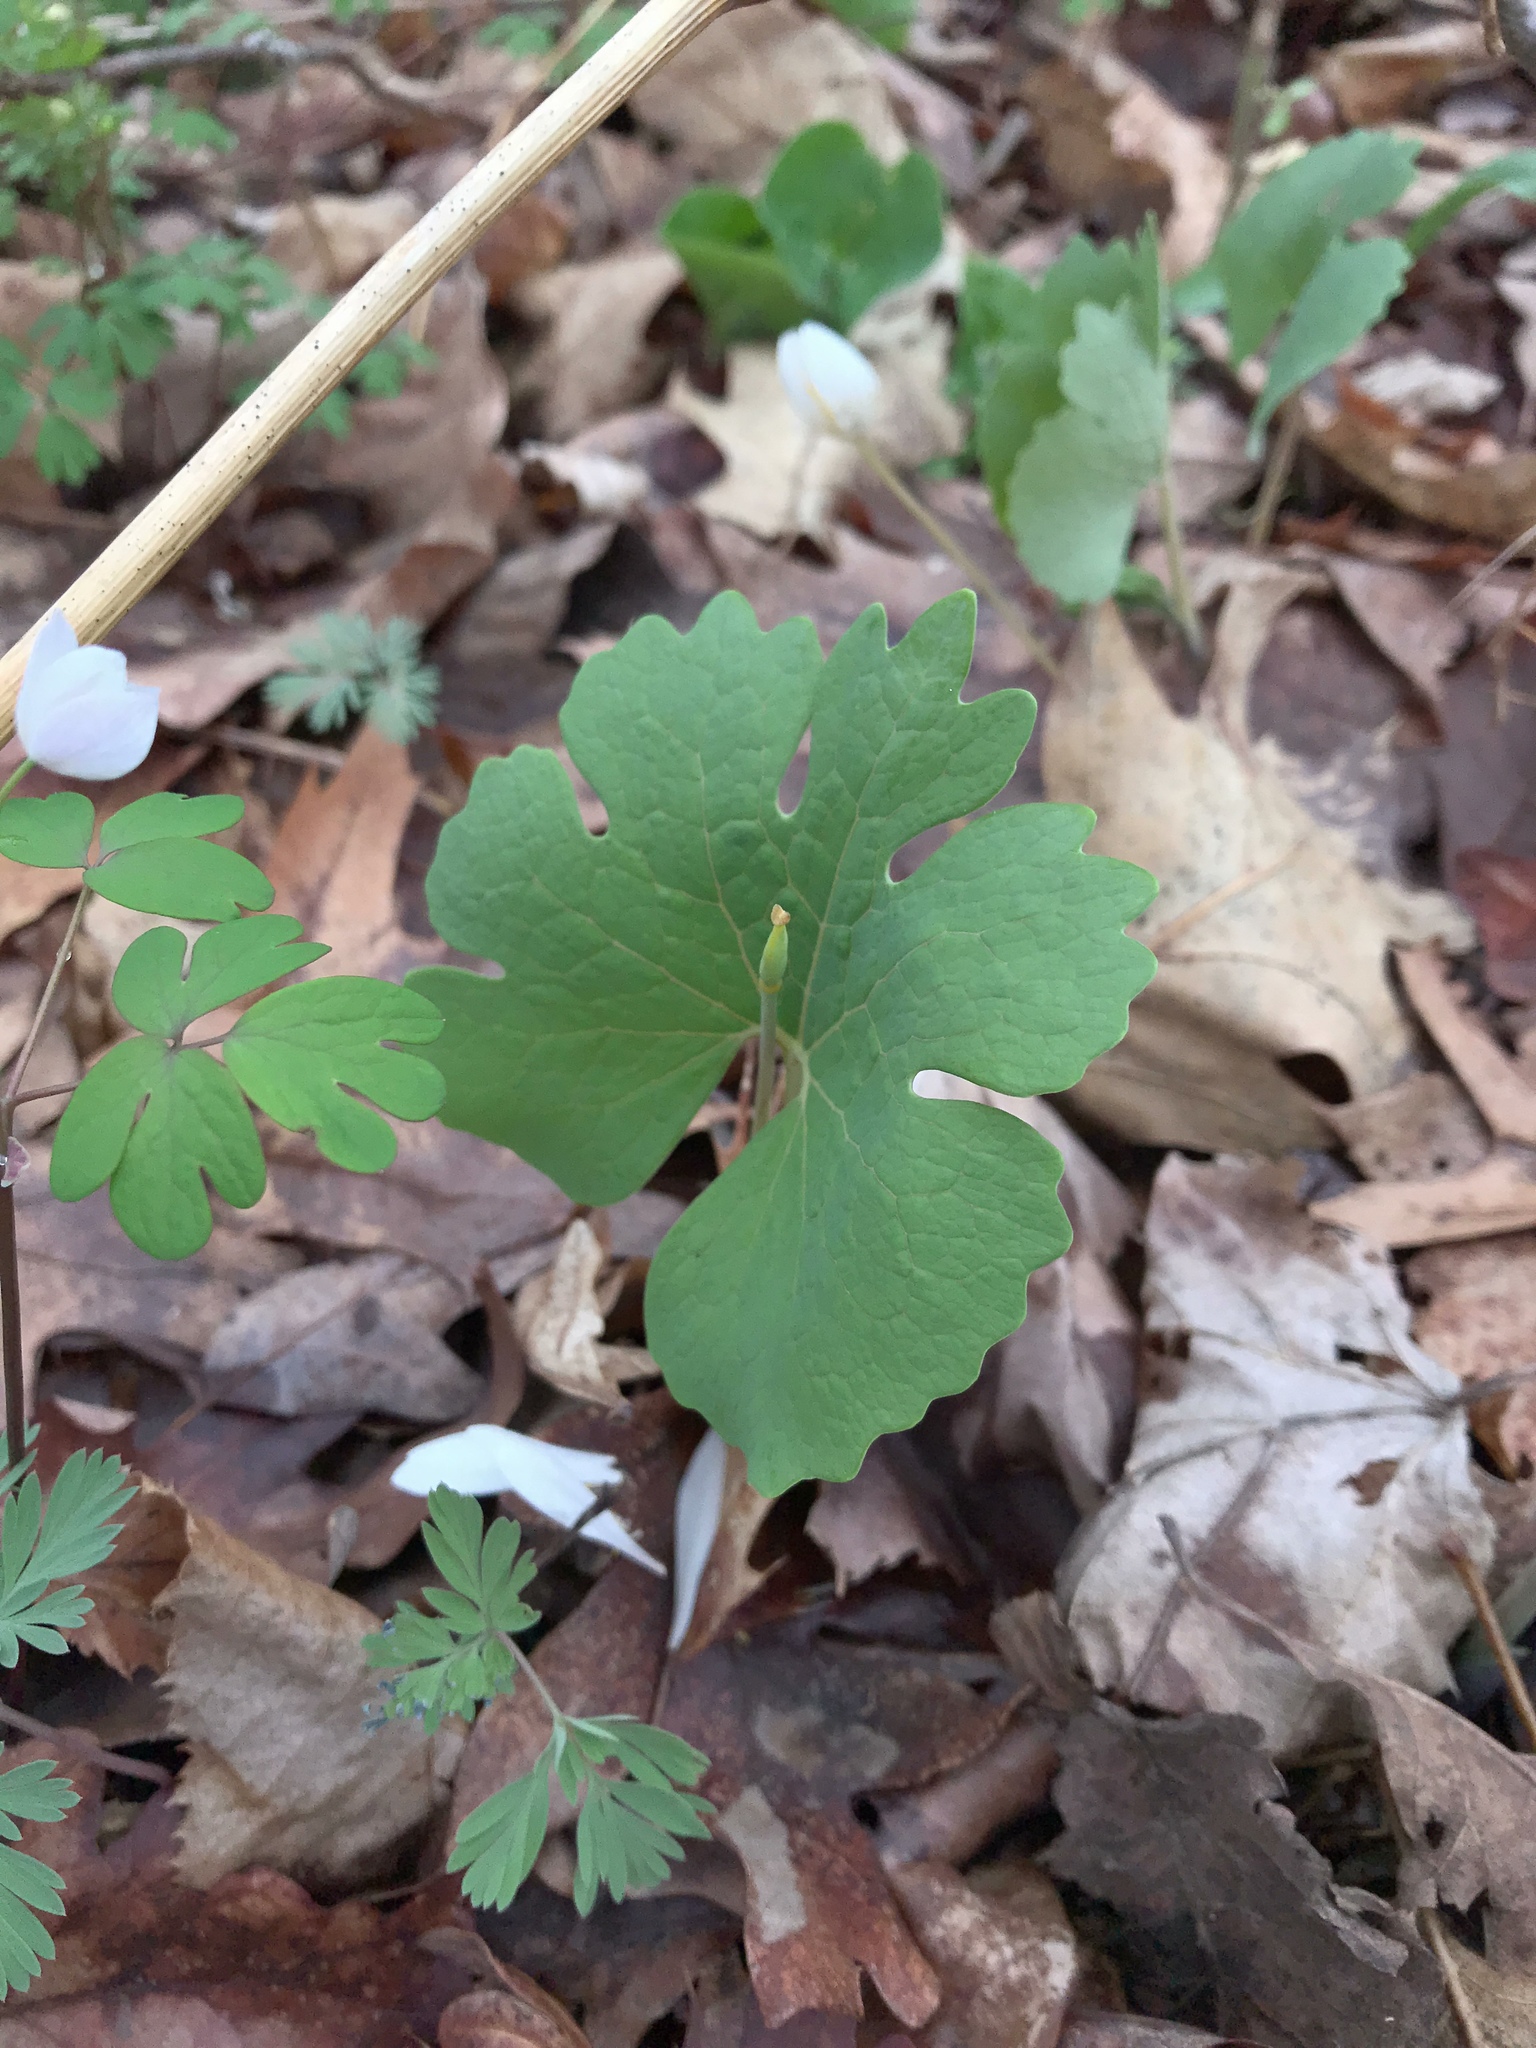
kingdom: Plantae
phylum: Tracheophyta
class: Magnoliopsida
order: Ranunculales
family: Papaveraceae
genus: Sanguinaria
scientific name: Sanguinaria canadensis
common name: Bloodroot
